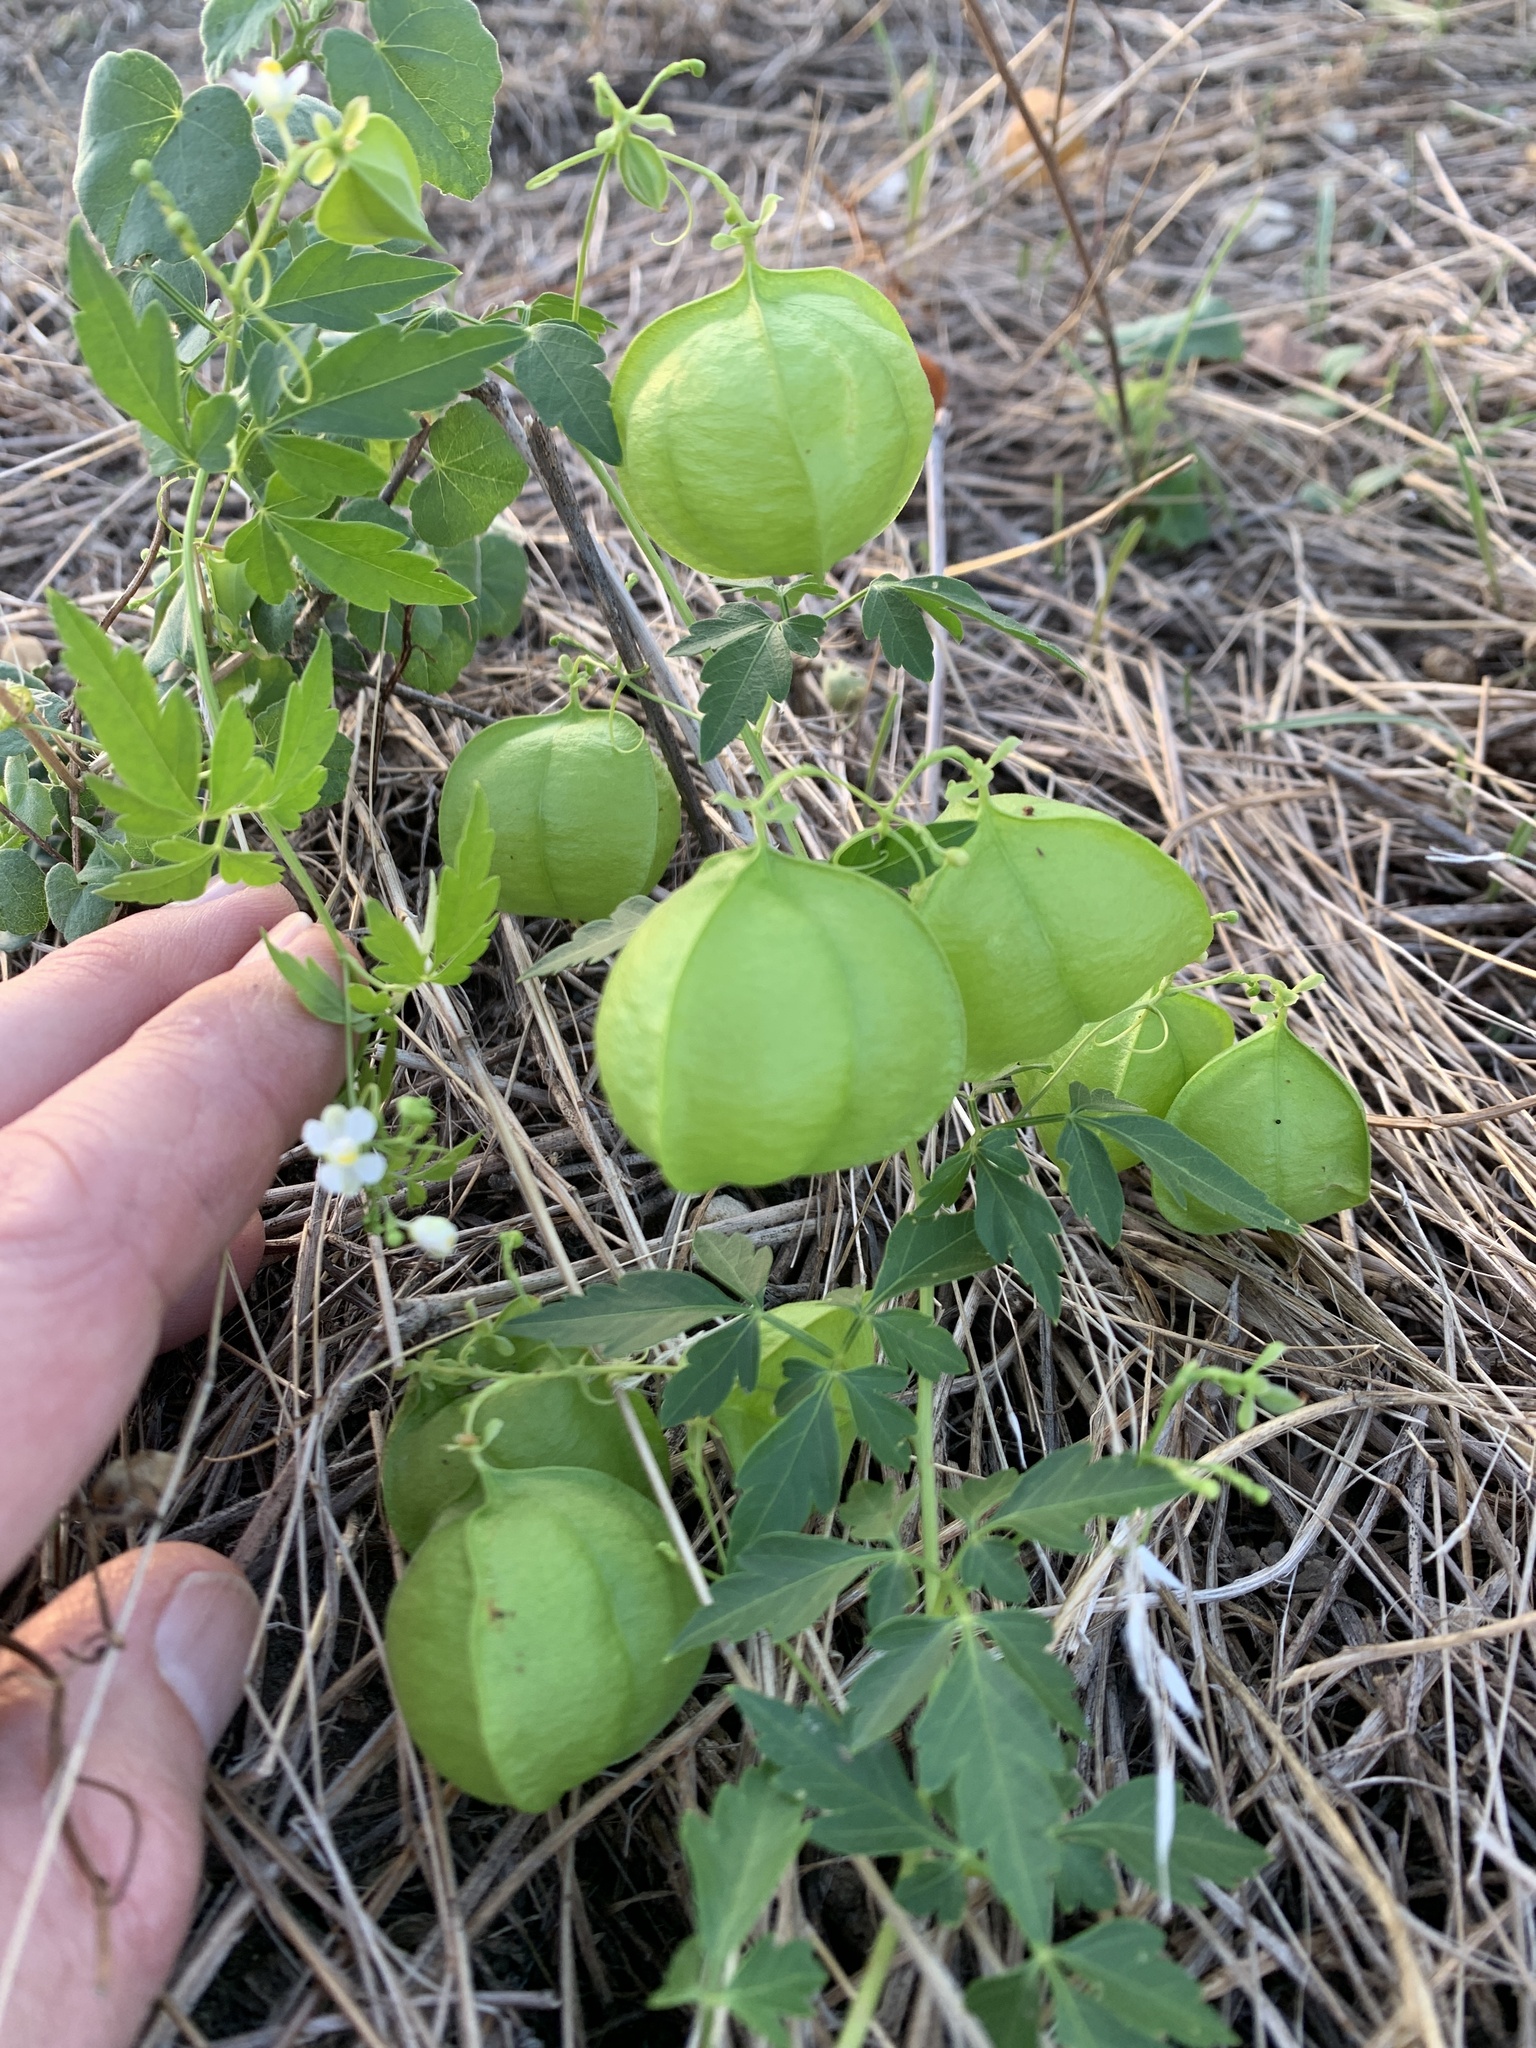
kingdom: Plantae
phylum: Tracheophyta
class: Magnoliopsida
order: Sapindales
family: Sapindaceae
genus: Cardiospermum
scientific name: Cardiospermum halicacabum
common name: Balloon vine
